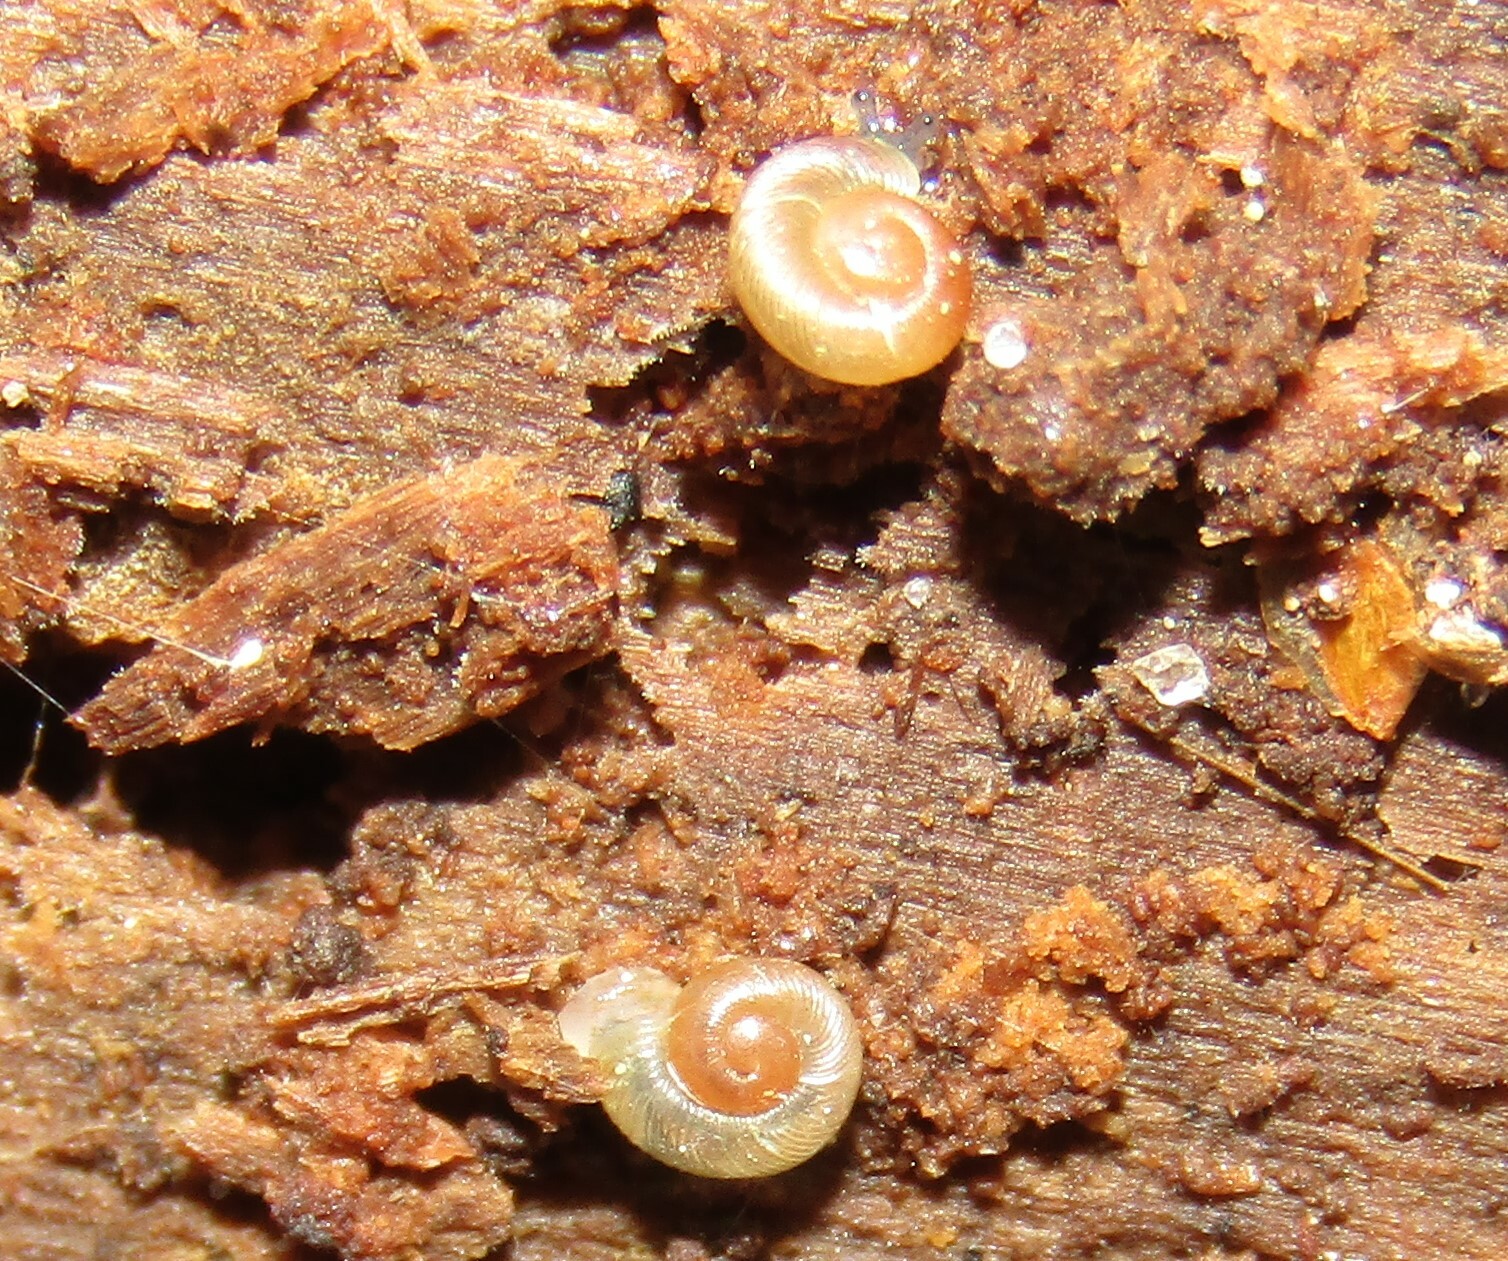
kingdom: Animalia
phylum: Mollusca
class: Gastropoda
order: Stylommatophora
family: Discidae
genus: Discus
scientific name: Discus ruderatus
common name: Brown disc snail
